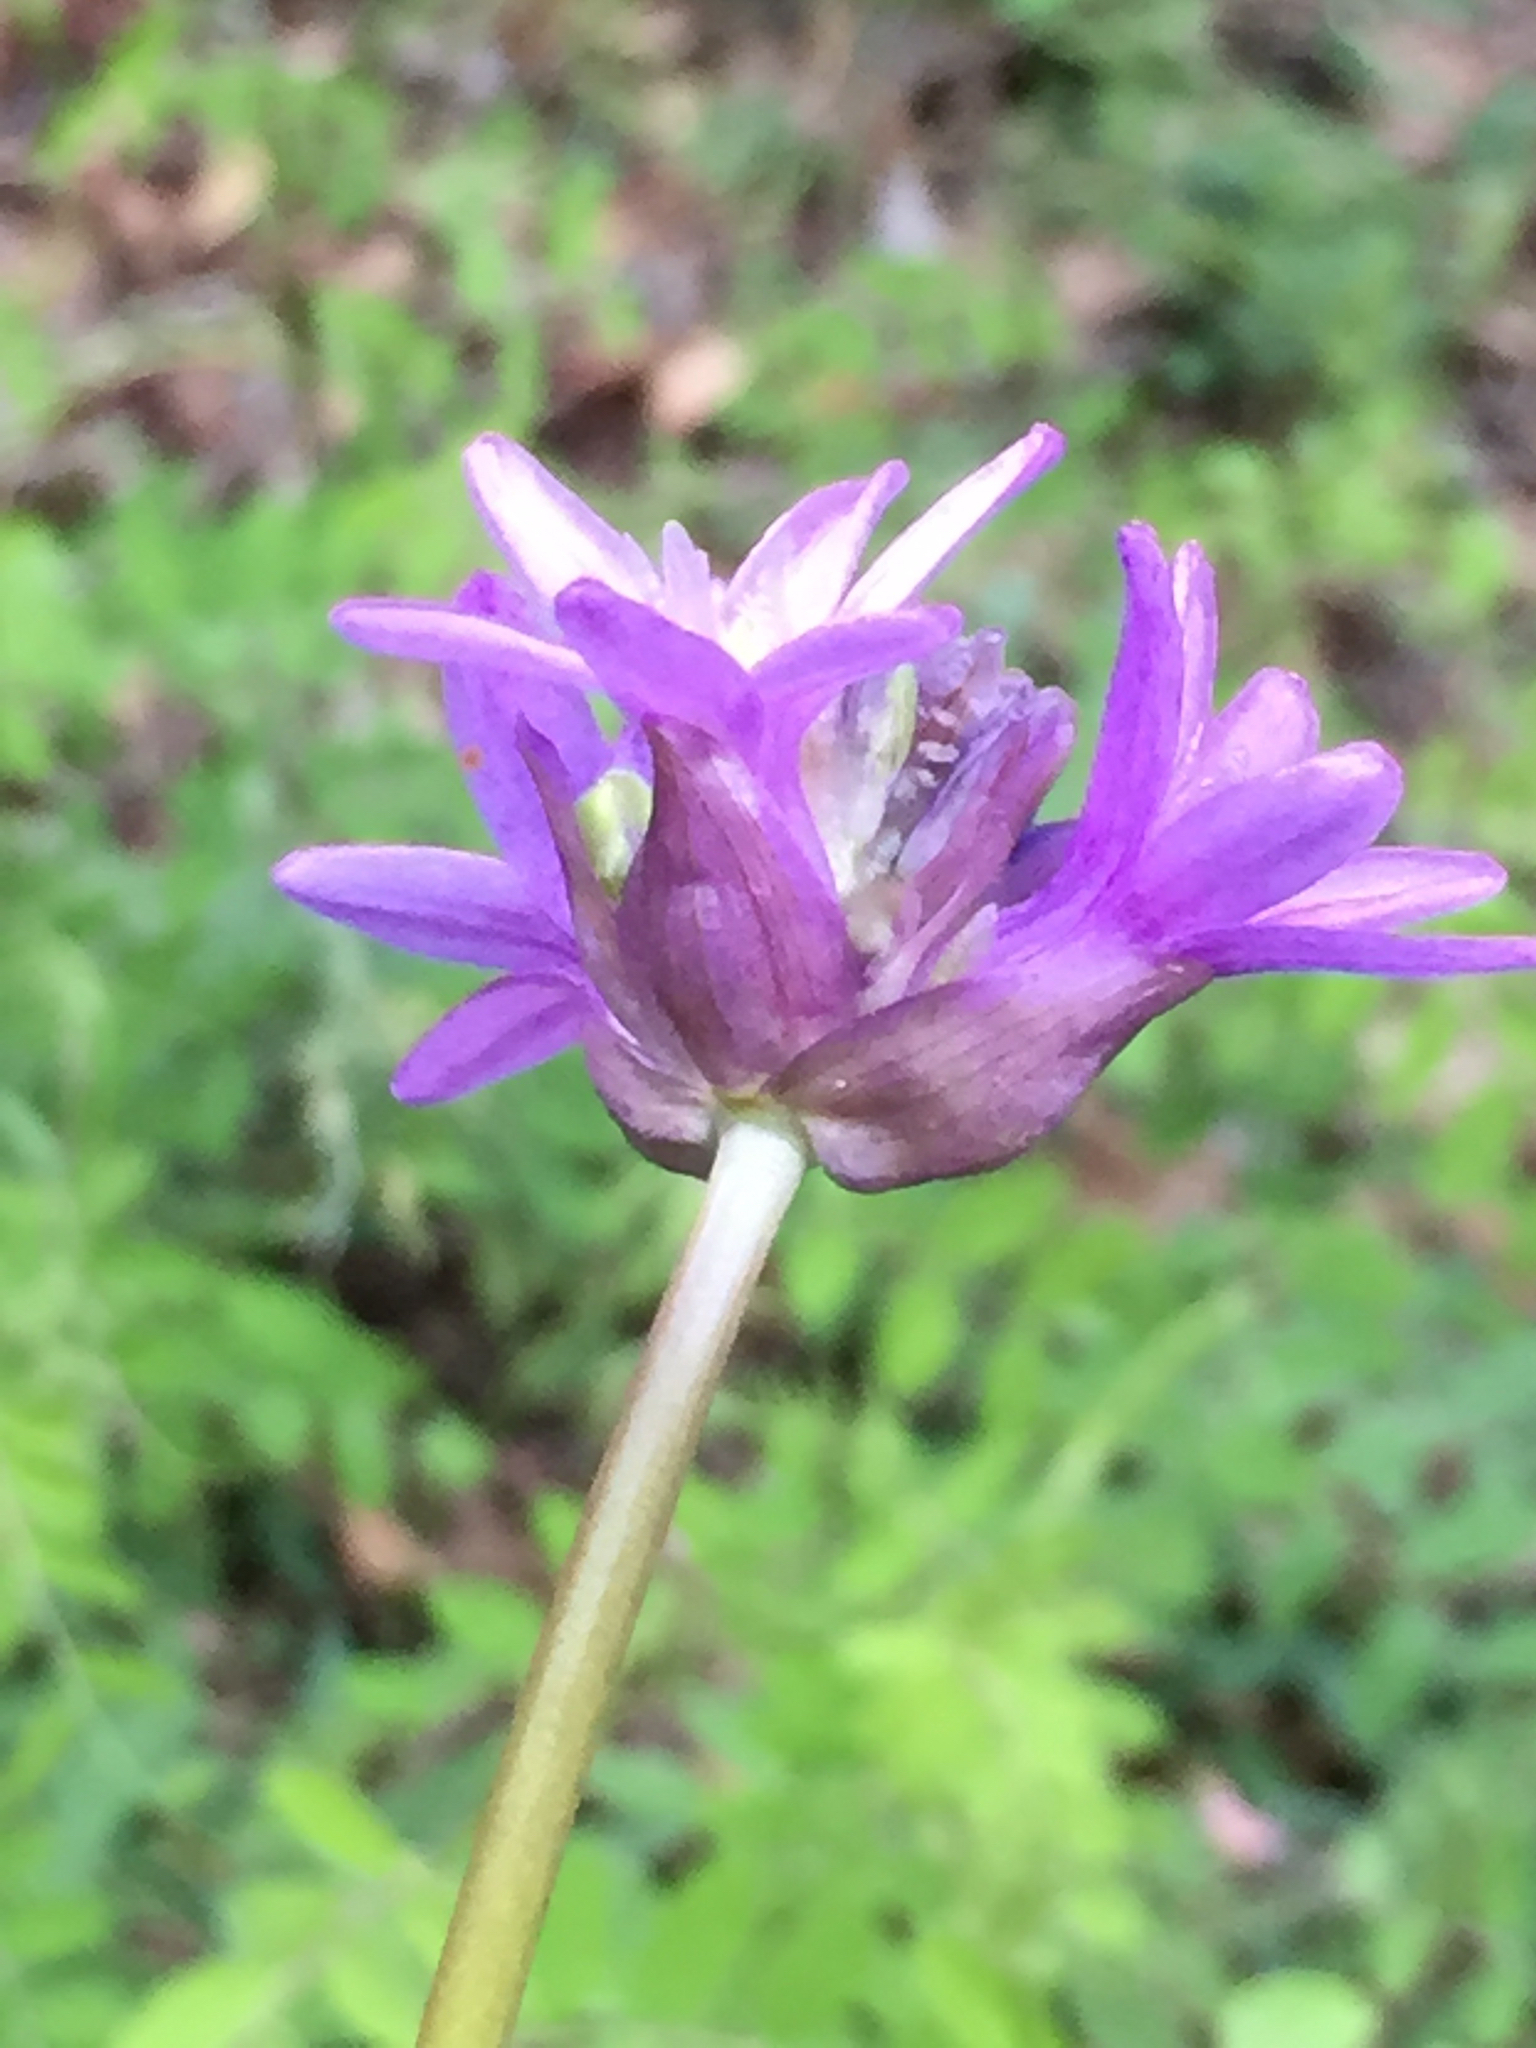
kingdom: Plantae
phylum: Tracheophyta
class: Liliopsida
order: Asparagales
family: Asparagaceae
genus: Dichelostemma
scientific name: Dichelostemma congestum
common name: Fork-tooth ookow
